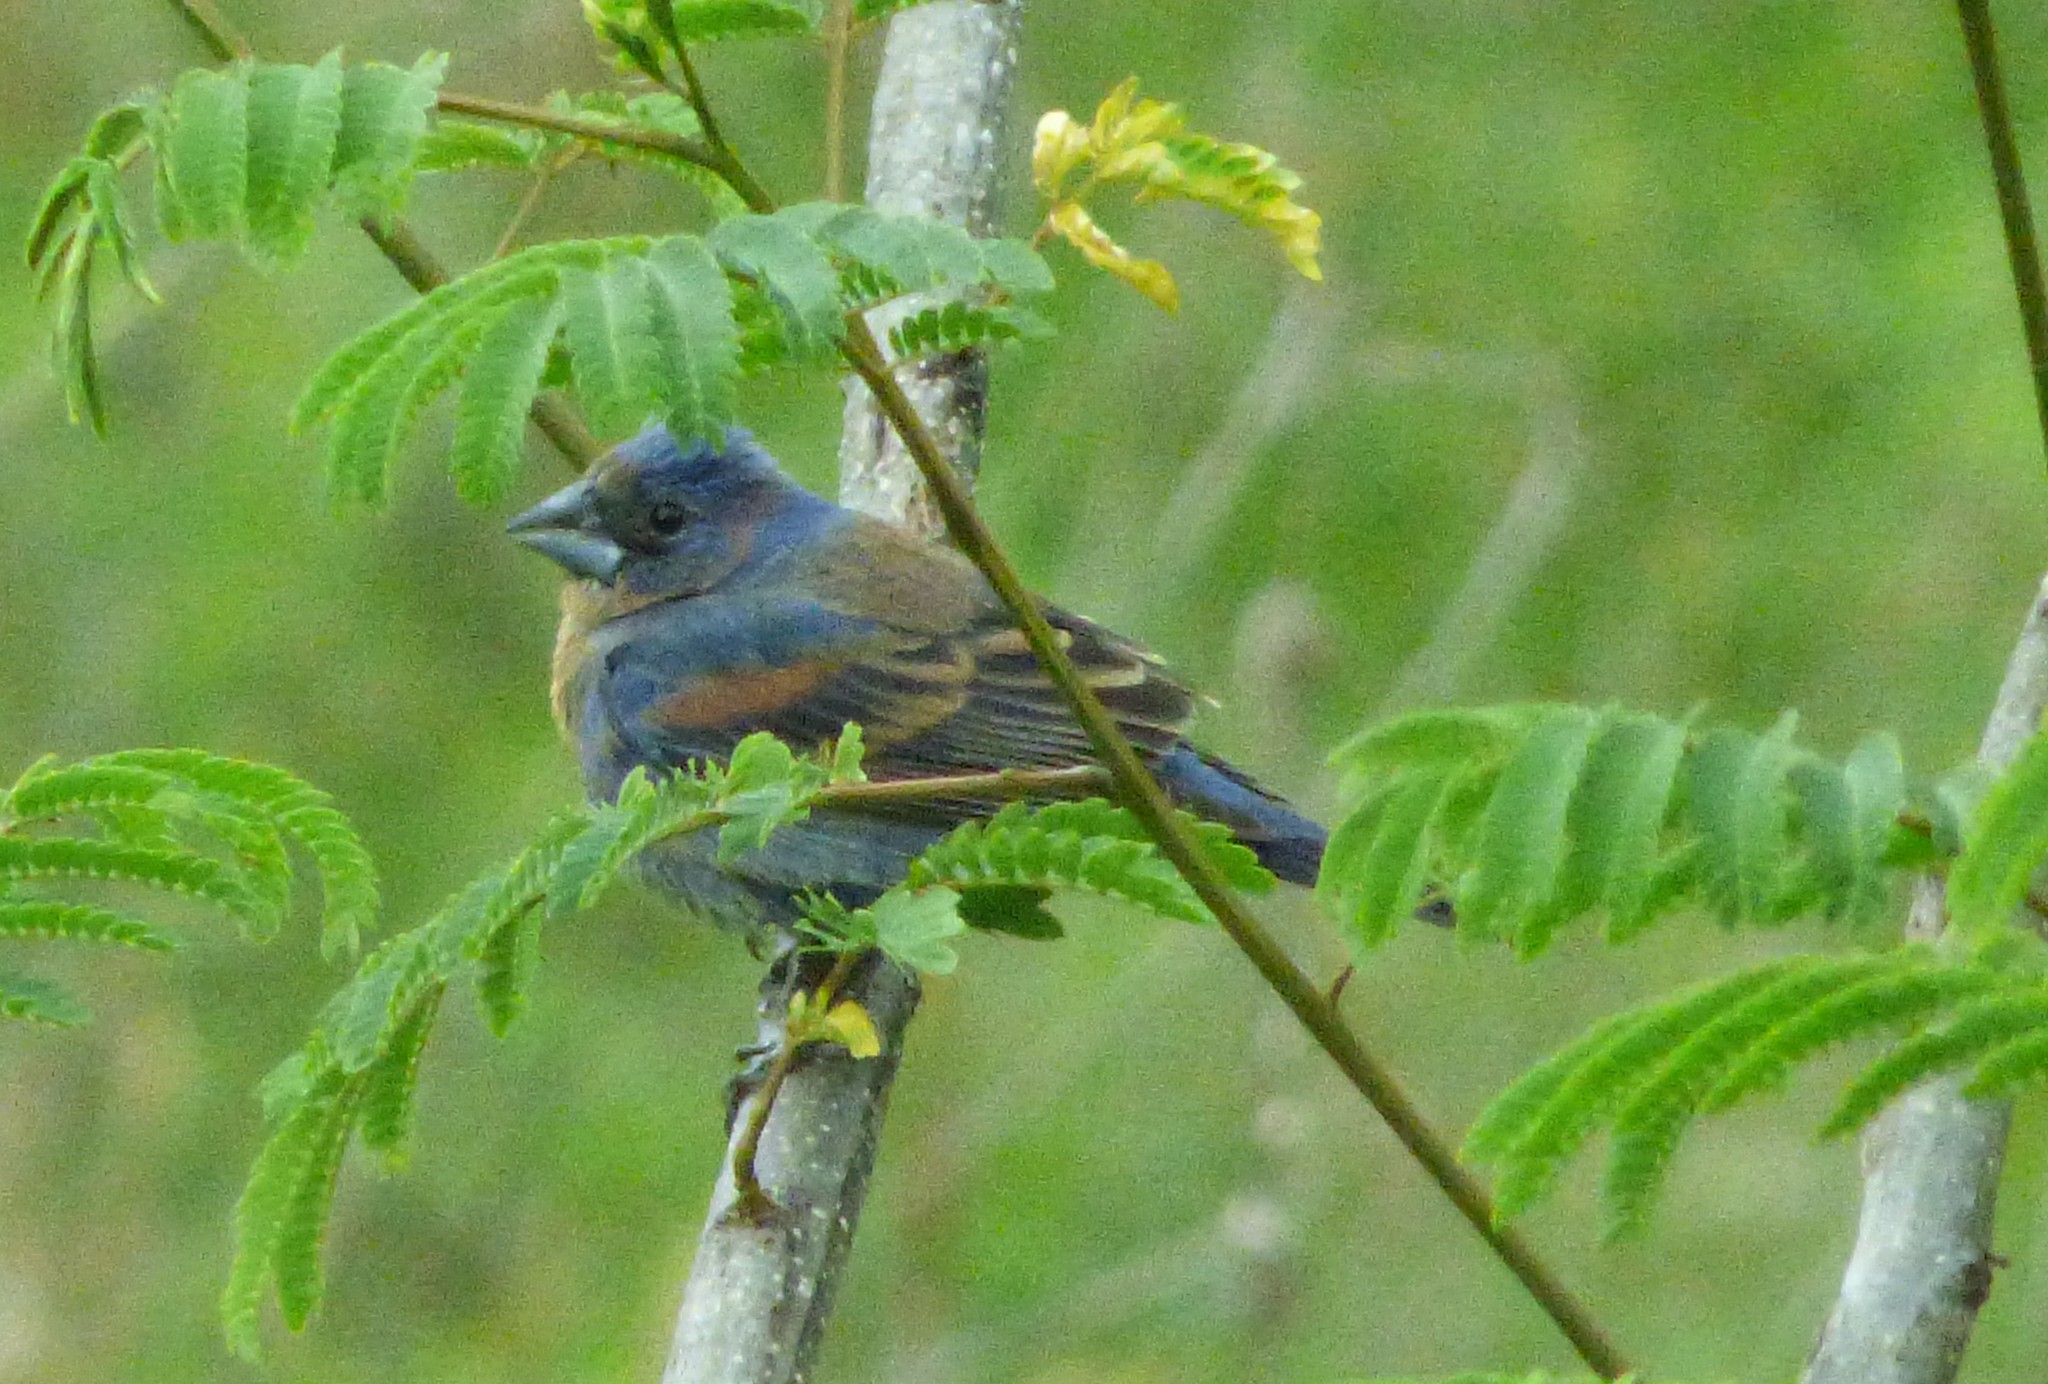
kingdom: Animalia
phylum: Chordata
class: Aves
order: Passeriformes
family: Cardinalidae
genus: Passerina
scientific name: Passerina caerulea
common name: Blue grosbeak
